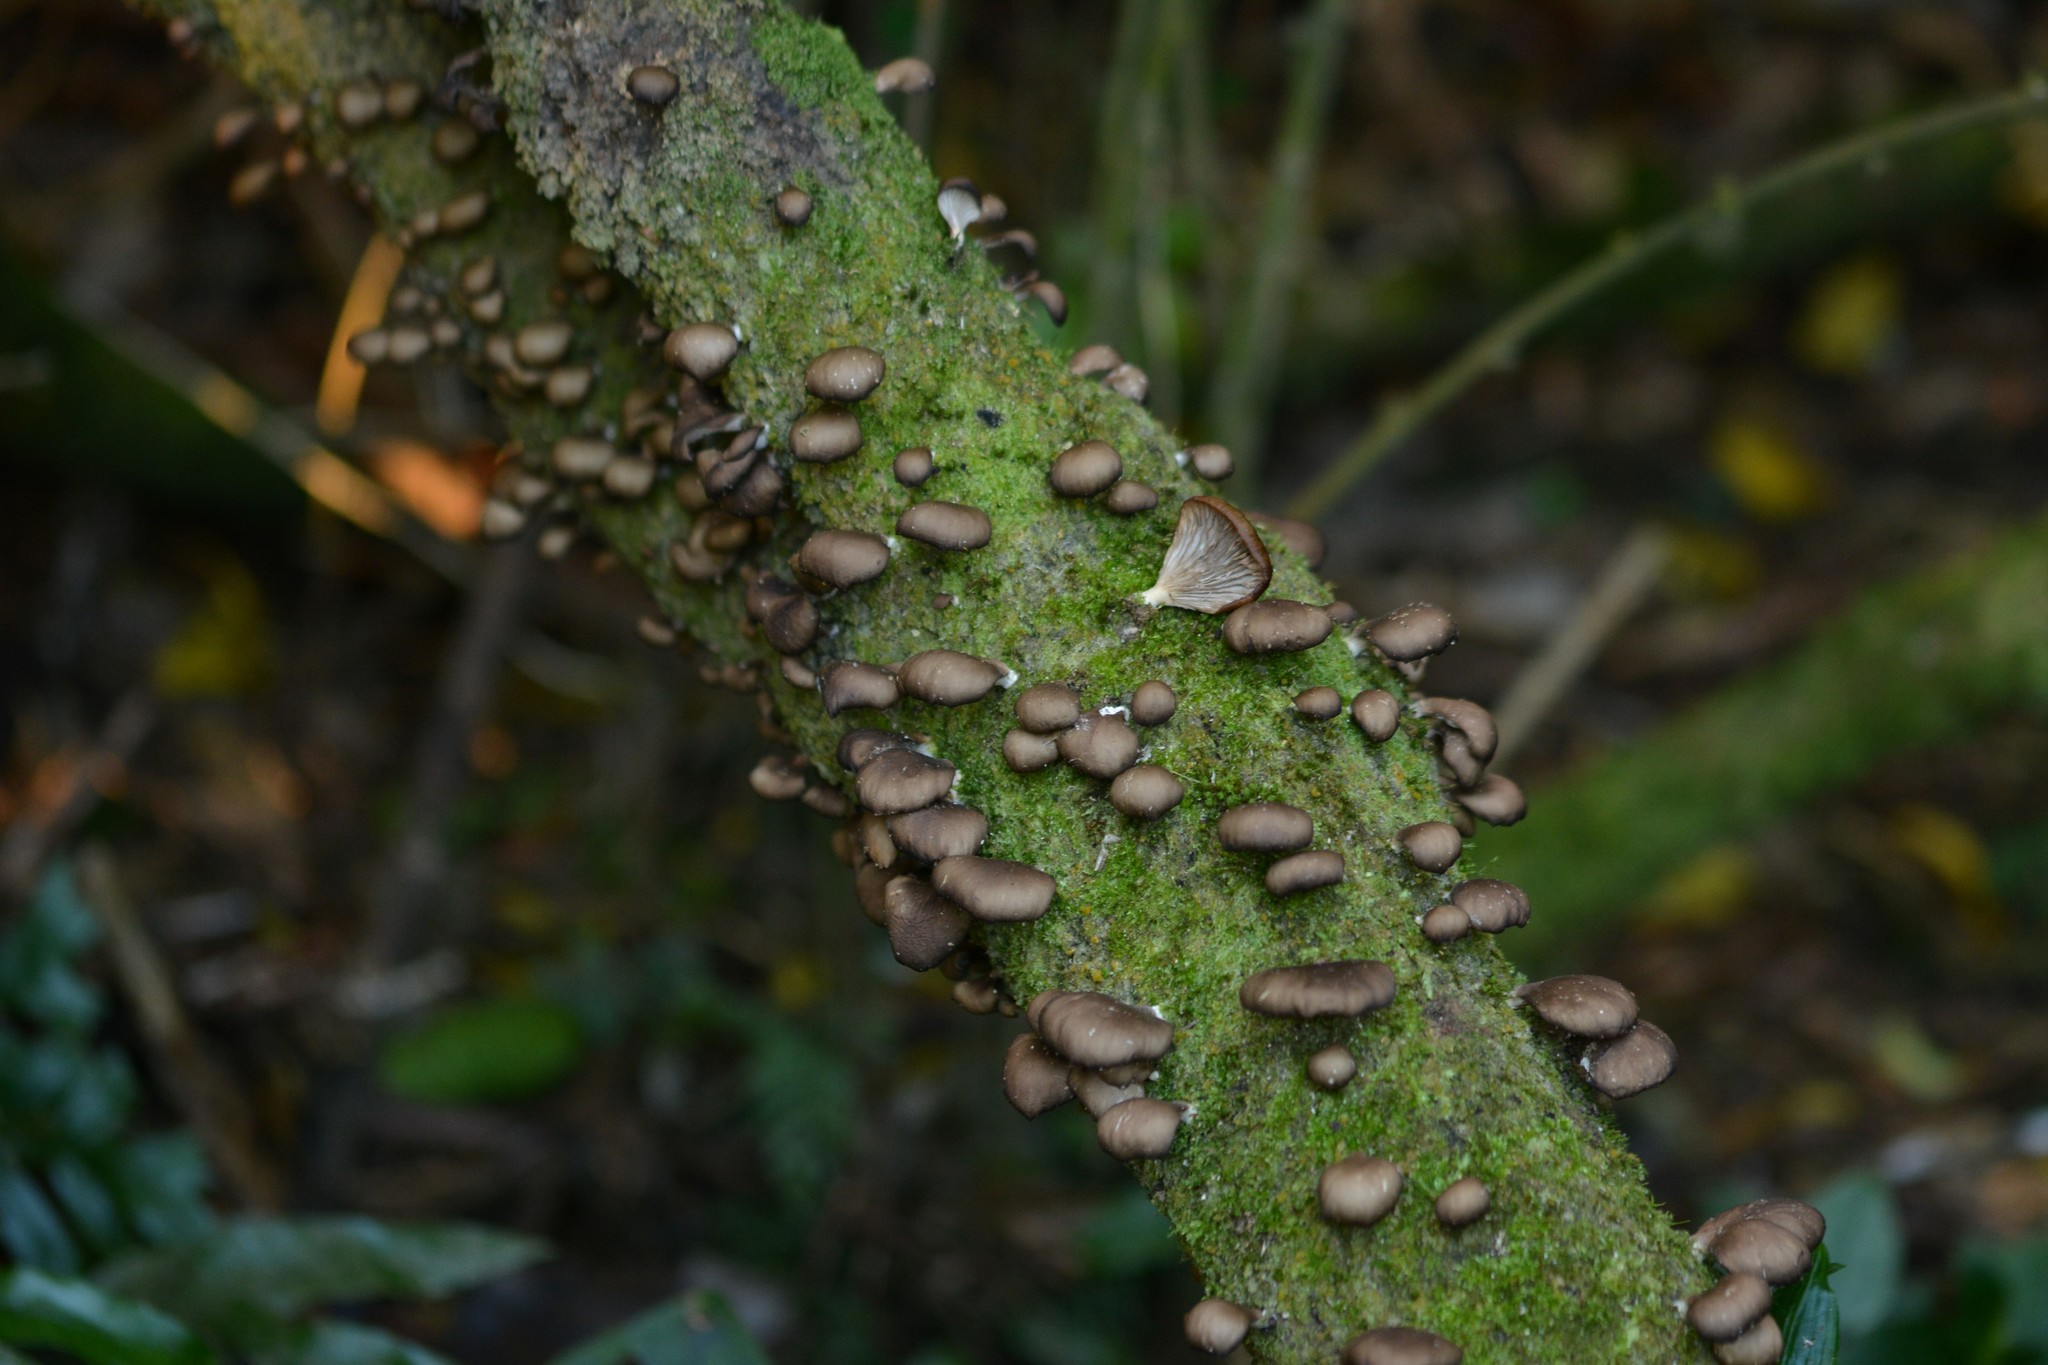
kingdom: Fungi
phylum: Basidiomycota
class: Agaricomycetes
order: Agaricales
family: Pleurotaceae
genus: Pleurotus
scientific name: Pleurotus purpureo-olivaceus
